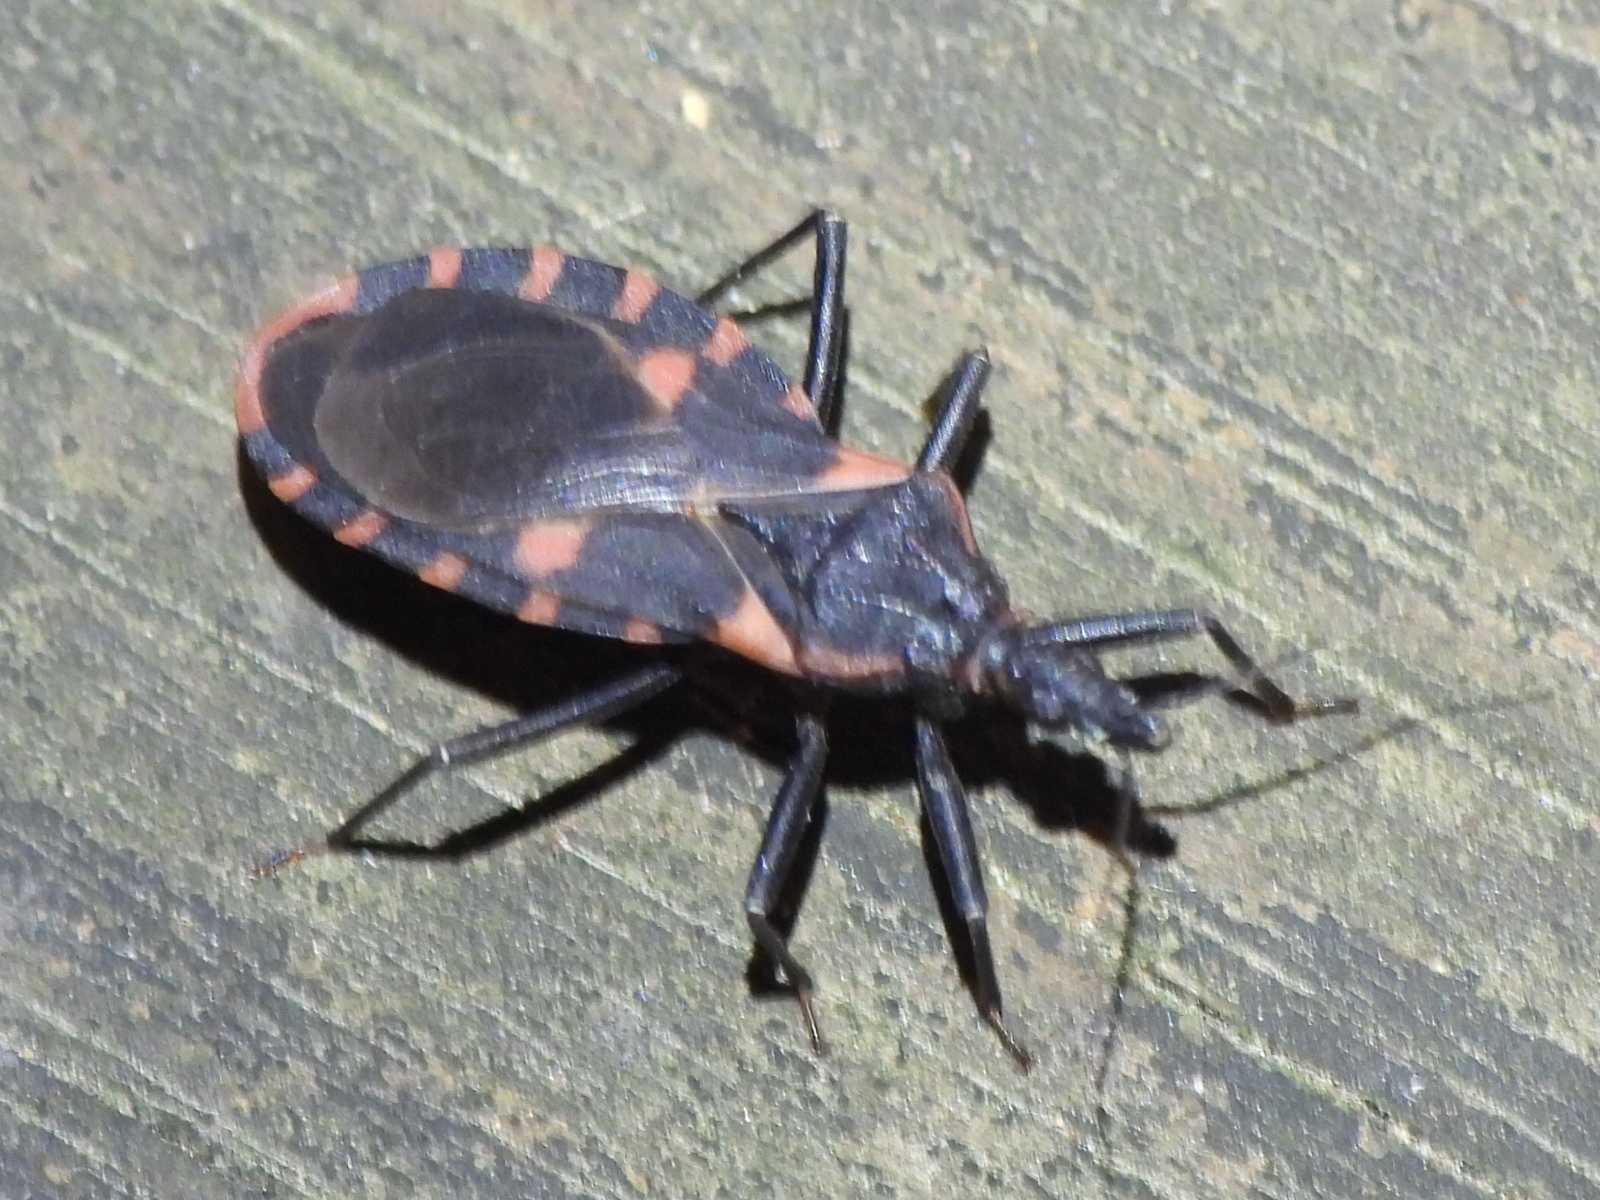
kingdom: Animalia
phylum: Arthropoda
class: Insecta
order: Hemiptera
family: Reduviidae
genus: Triatoma
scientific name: Triatoma sanguisuga
